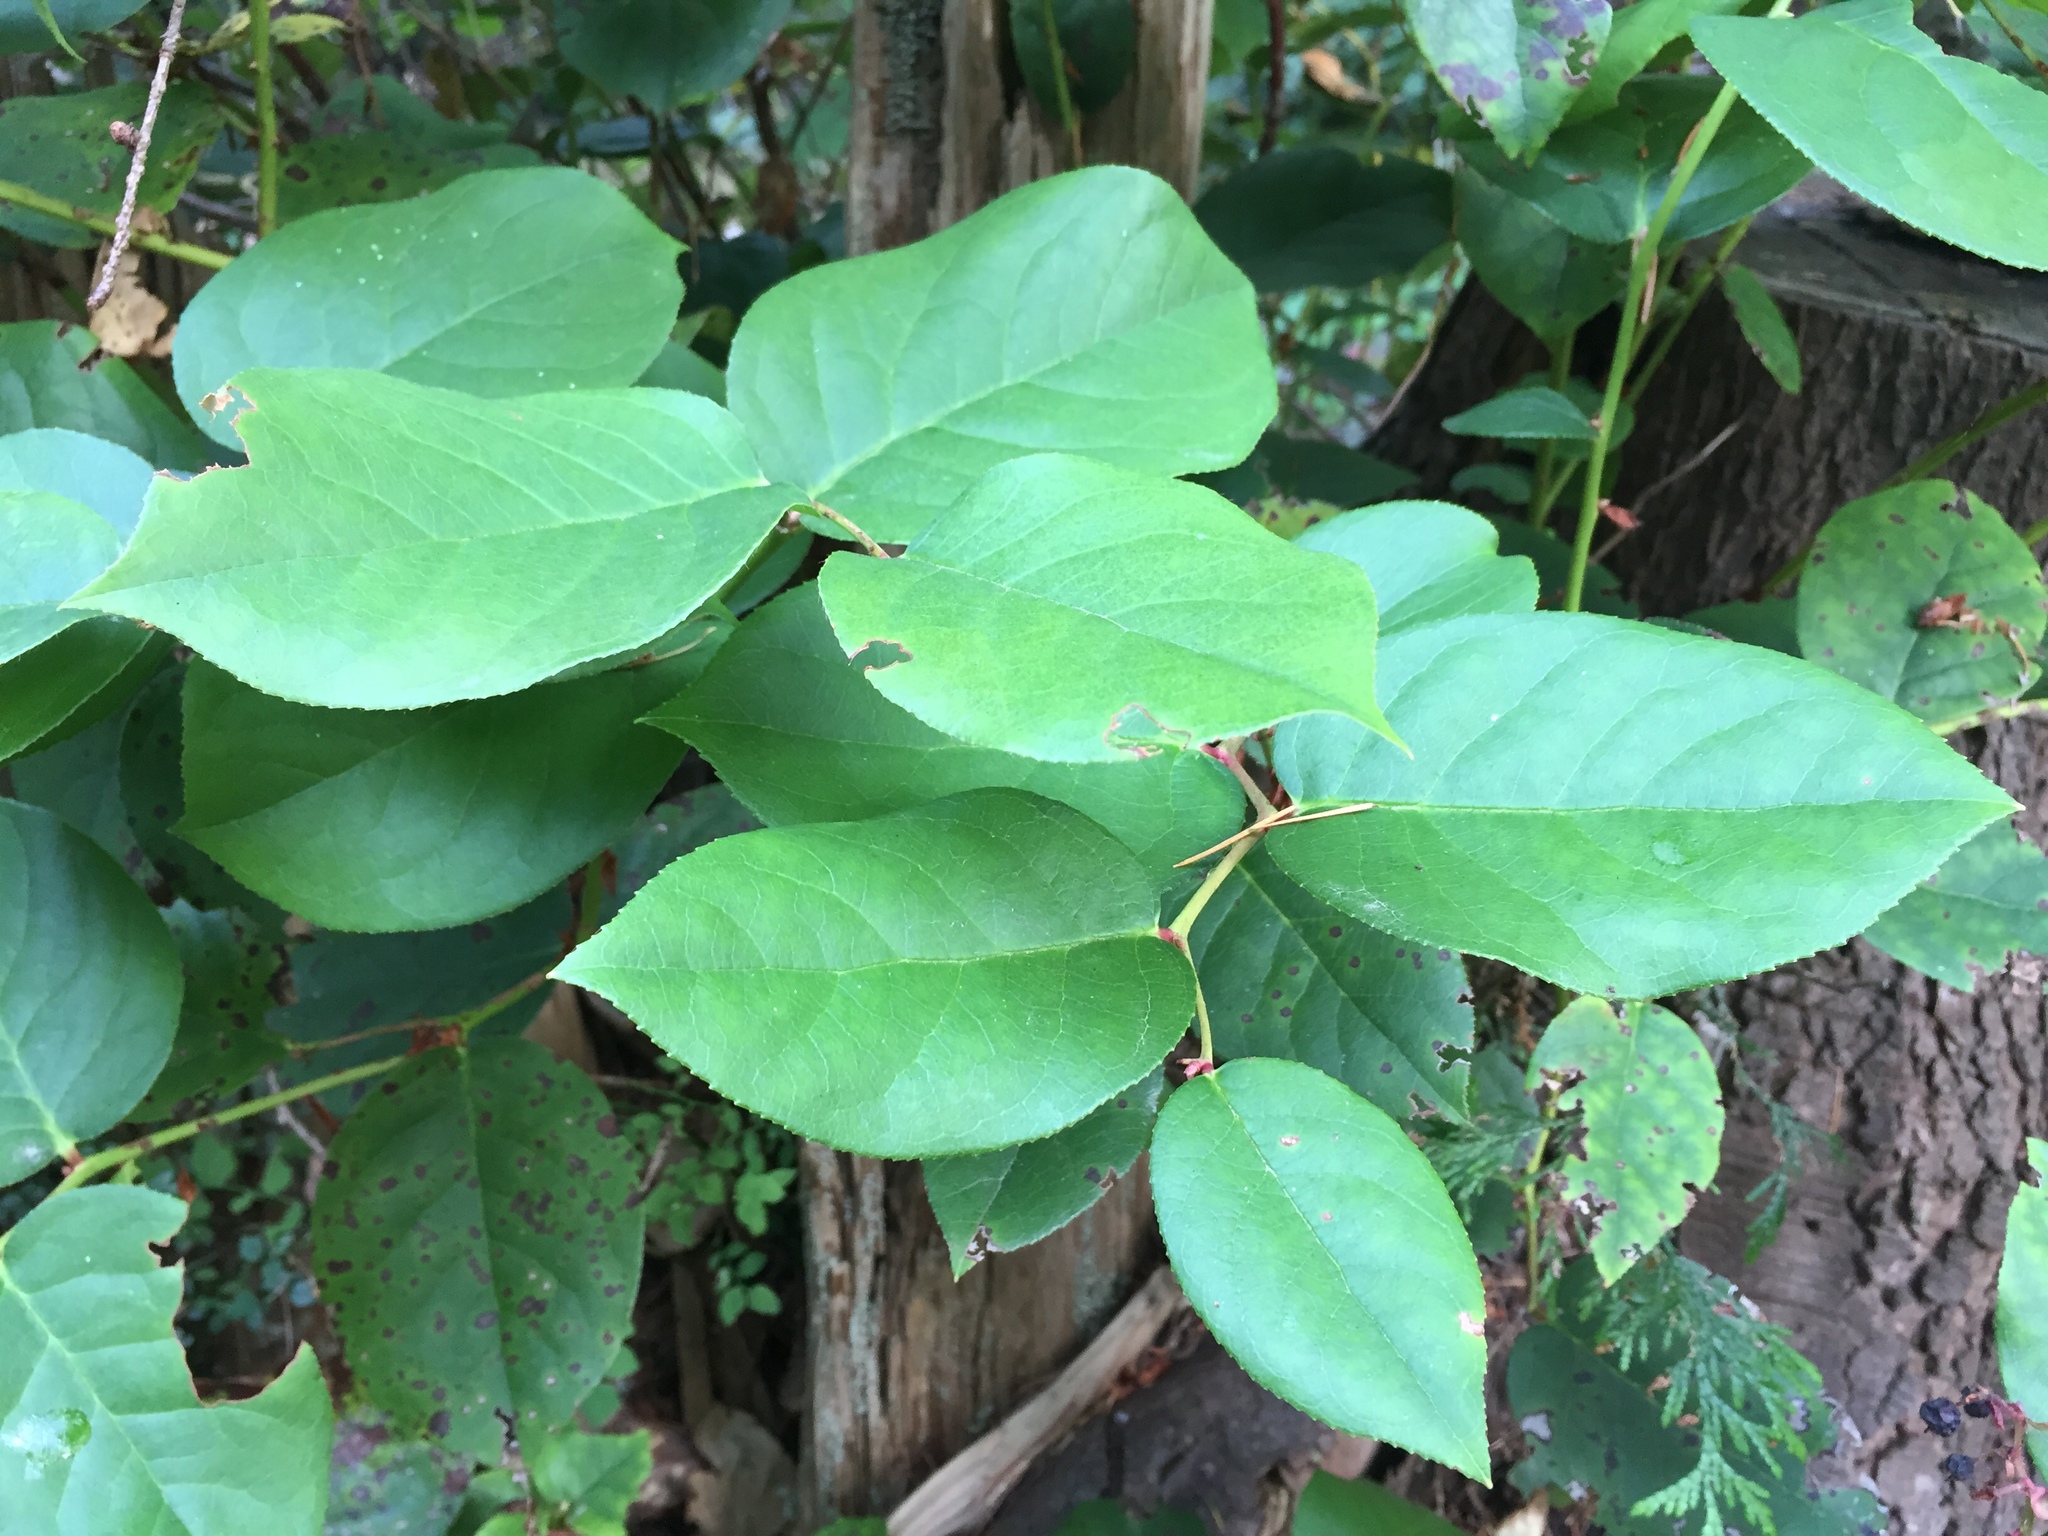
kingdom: Plantae
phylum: Tracheophyta
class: Magnoliopsida
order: Ericales
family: Ericaceae
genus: Gaultheria
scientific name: Gaultheria shallon
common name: Shallon
